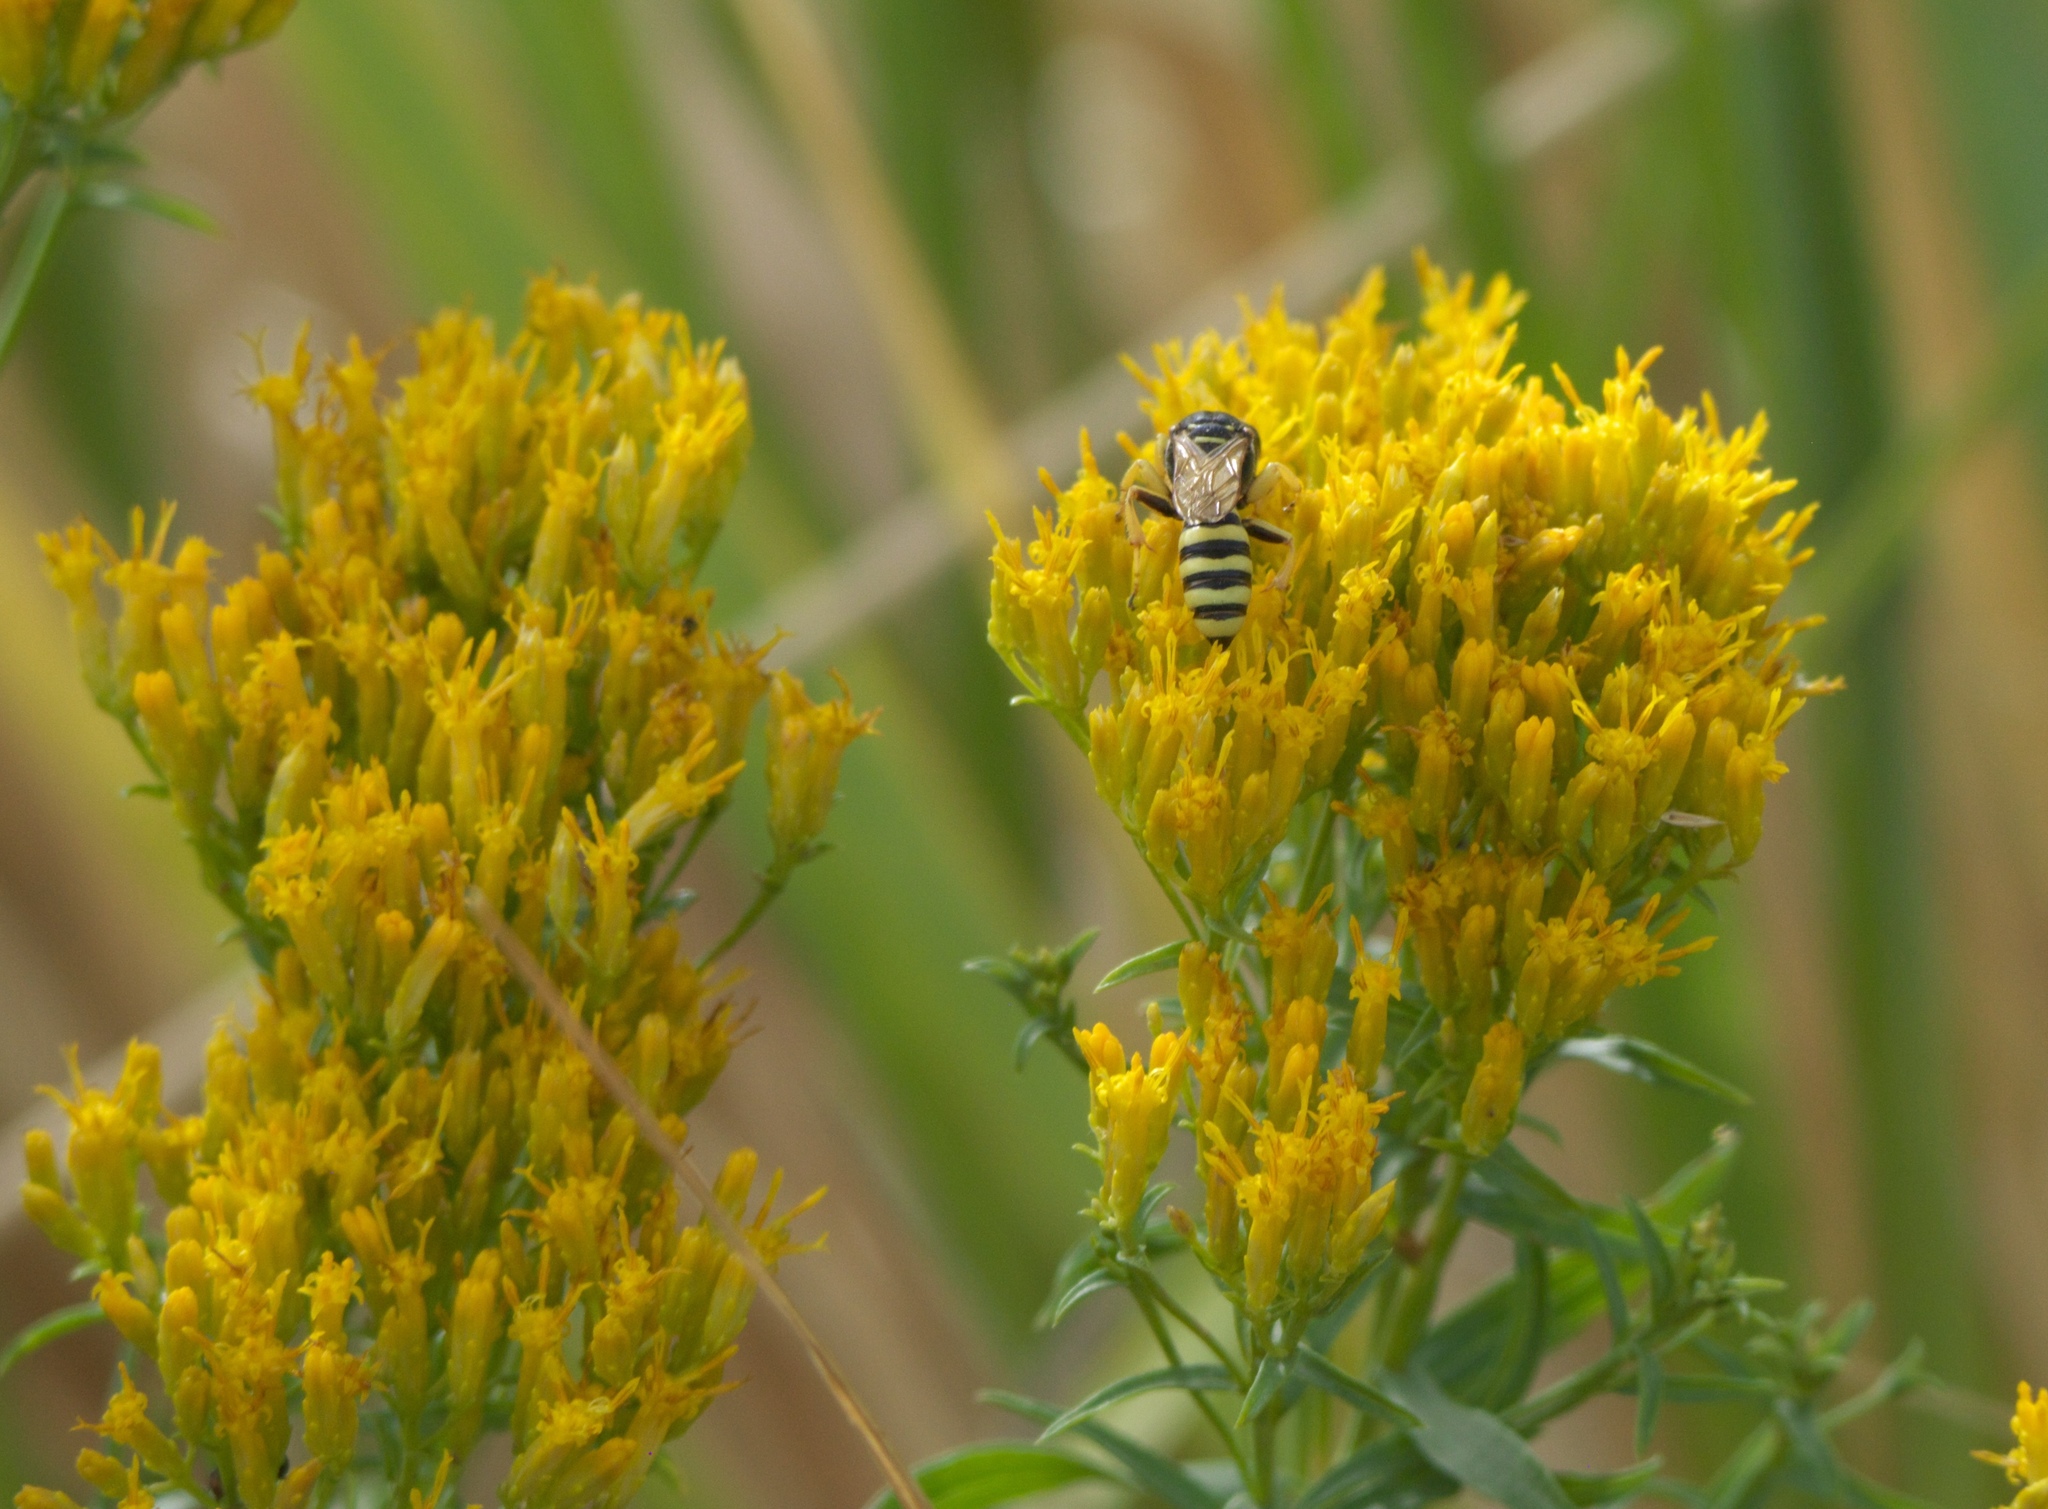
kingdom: Plantae
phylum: Tracheophyta
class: Magnoliopsida
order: Asterales
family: Asteraceae
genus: Chrysothamnus
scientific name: Chrysothamnus viscidiflorus
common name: Yellow rabbitbrush
